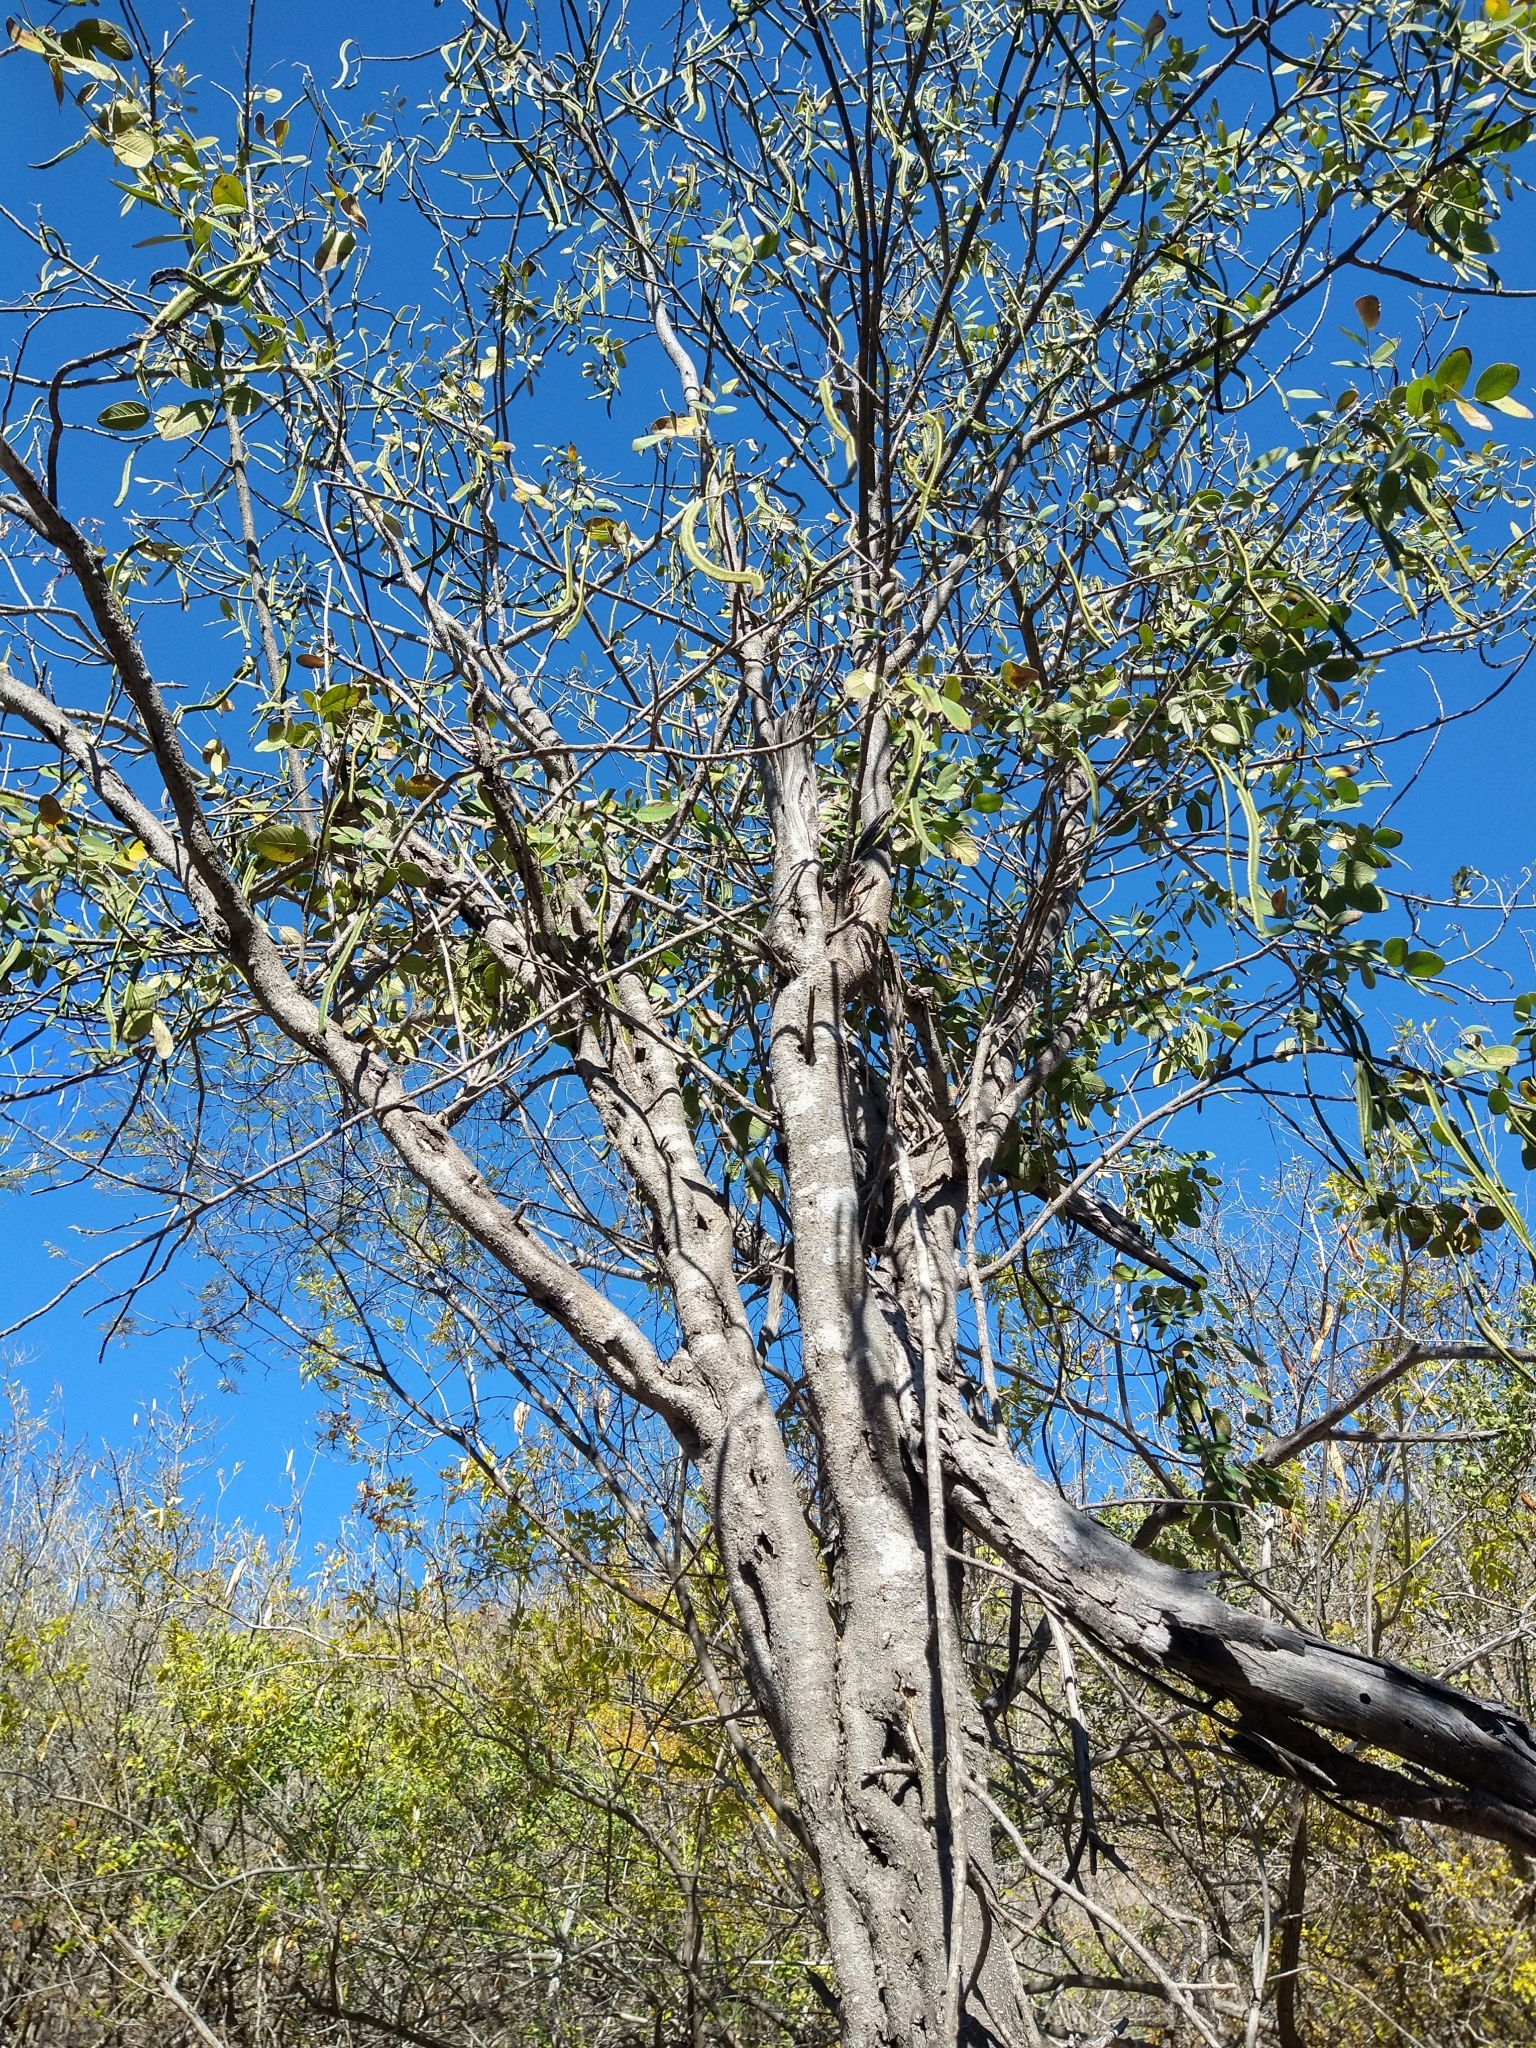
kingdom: Plantae
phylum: Tracheophyta
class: Magnoliopsida
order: Fabales
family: Fabaceae
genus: Senna
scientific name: Senna atomaria
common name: Flor de san jose
